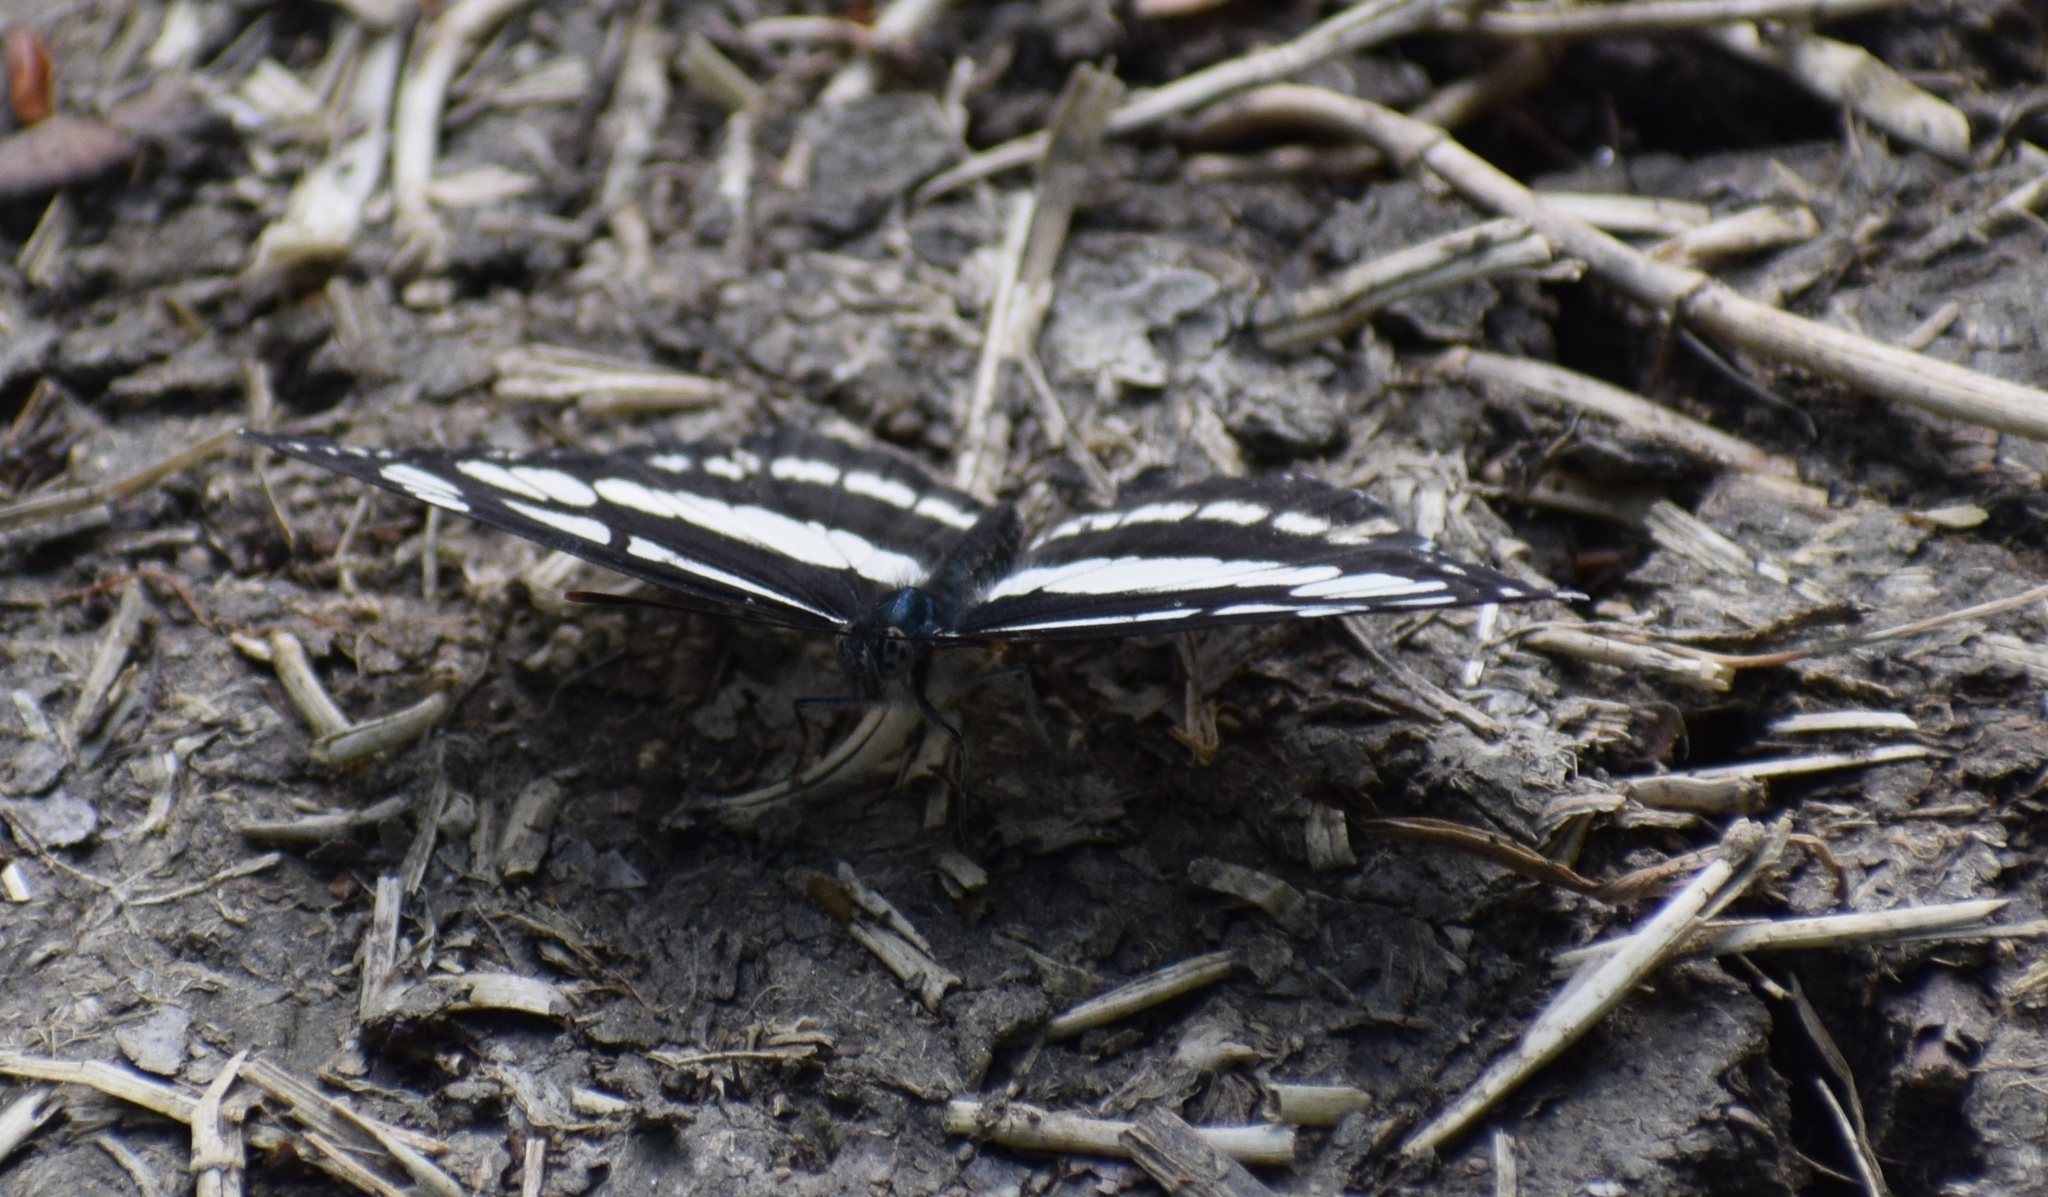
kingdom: Animalia
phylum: Arthropoda
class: Insecta
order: Lepidoptera
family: Nymphalidae
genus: Neptis
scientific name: Neptis sappho
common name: Common glider
